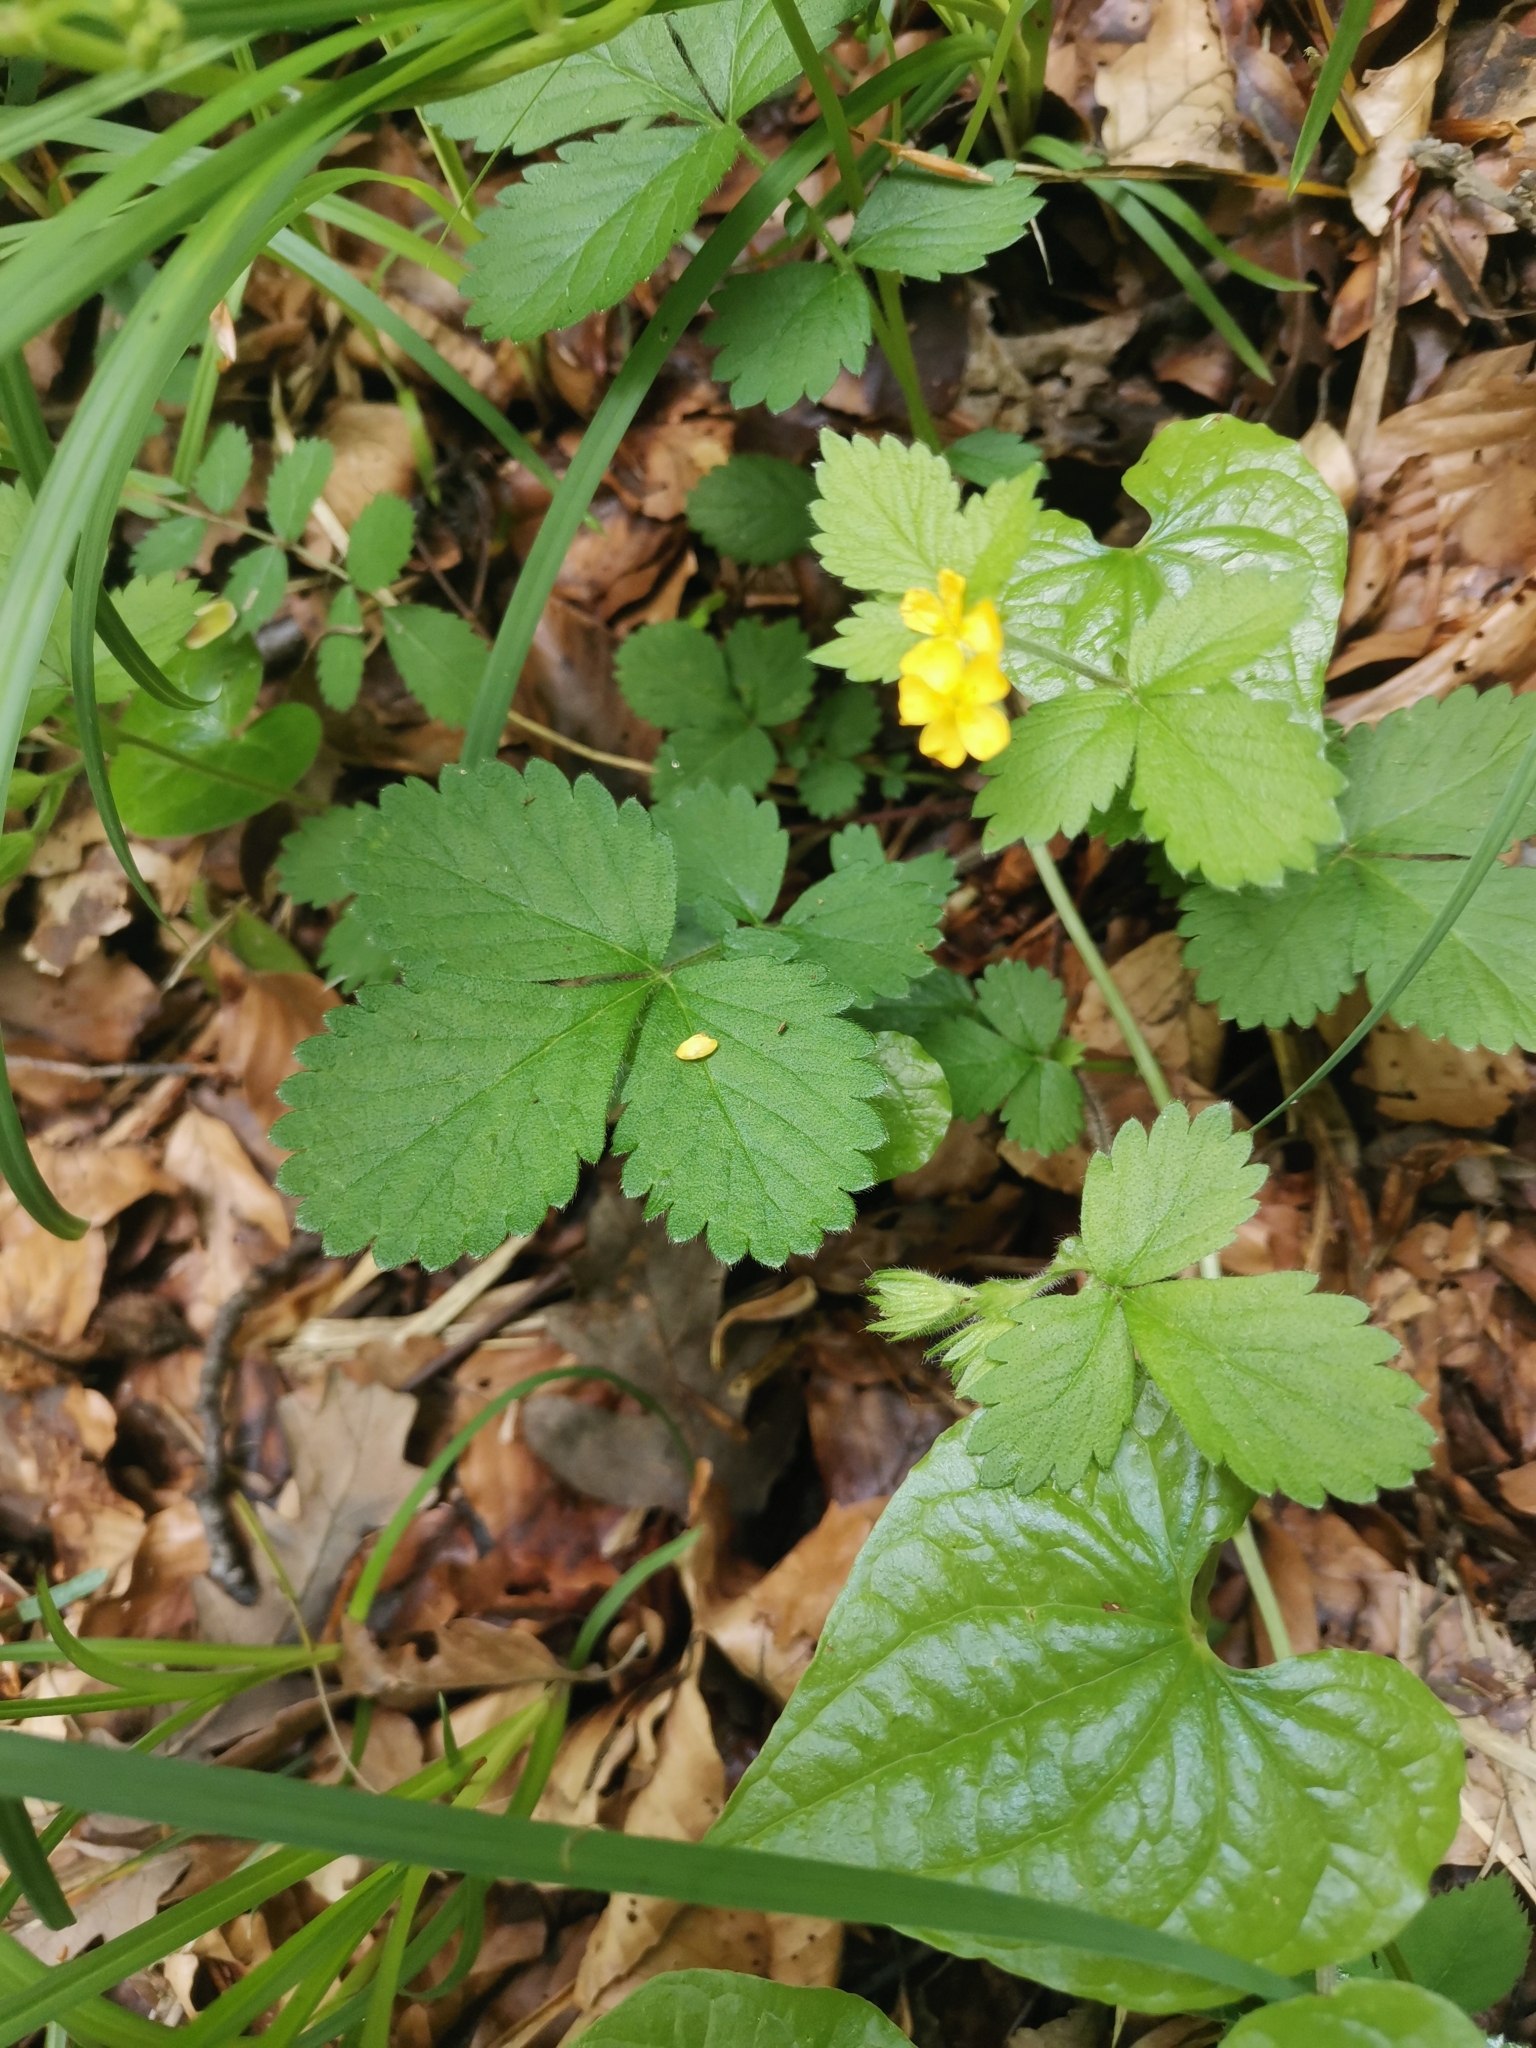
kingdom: Plantae
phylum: Tracheophyta
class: Magnoliopsida
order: Rosales
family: Rosaceae
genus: Aremonia
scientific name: Aremonia agrimonoides
